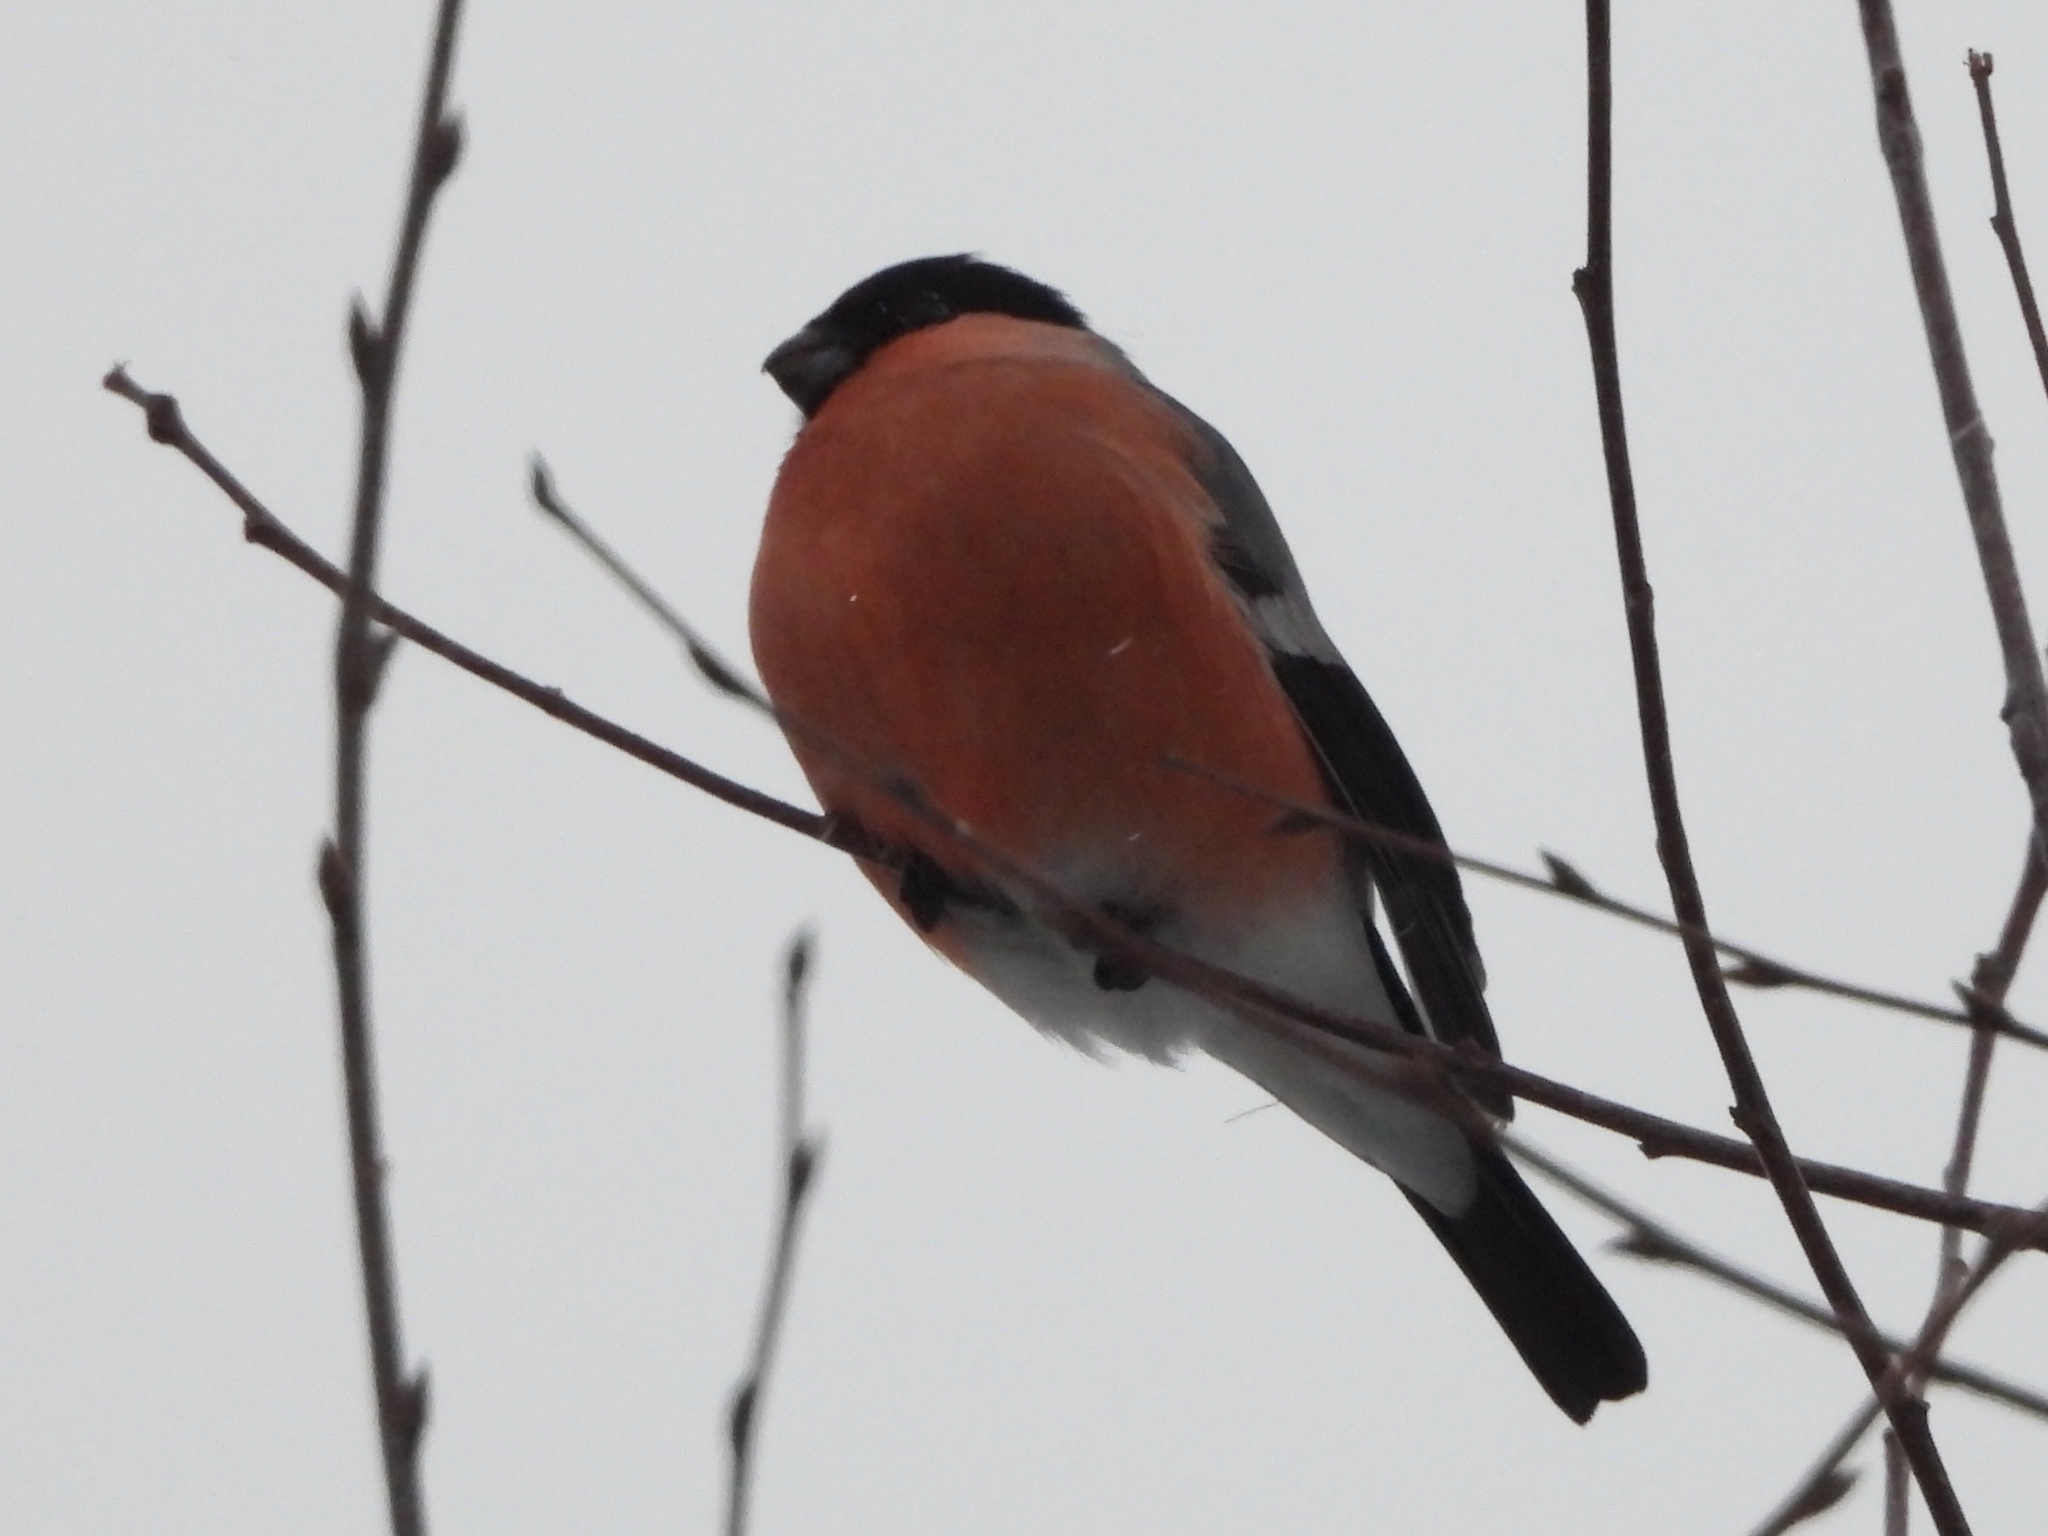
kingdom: Animalia
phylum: Chordata
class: Aves
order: Passeriformes
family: Fringillidae
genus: Pyrrhula
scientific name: Pyrrhula pyrrhula
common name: Eurasian bullfinch
